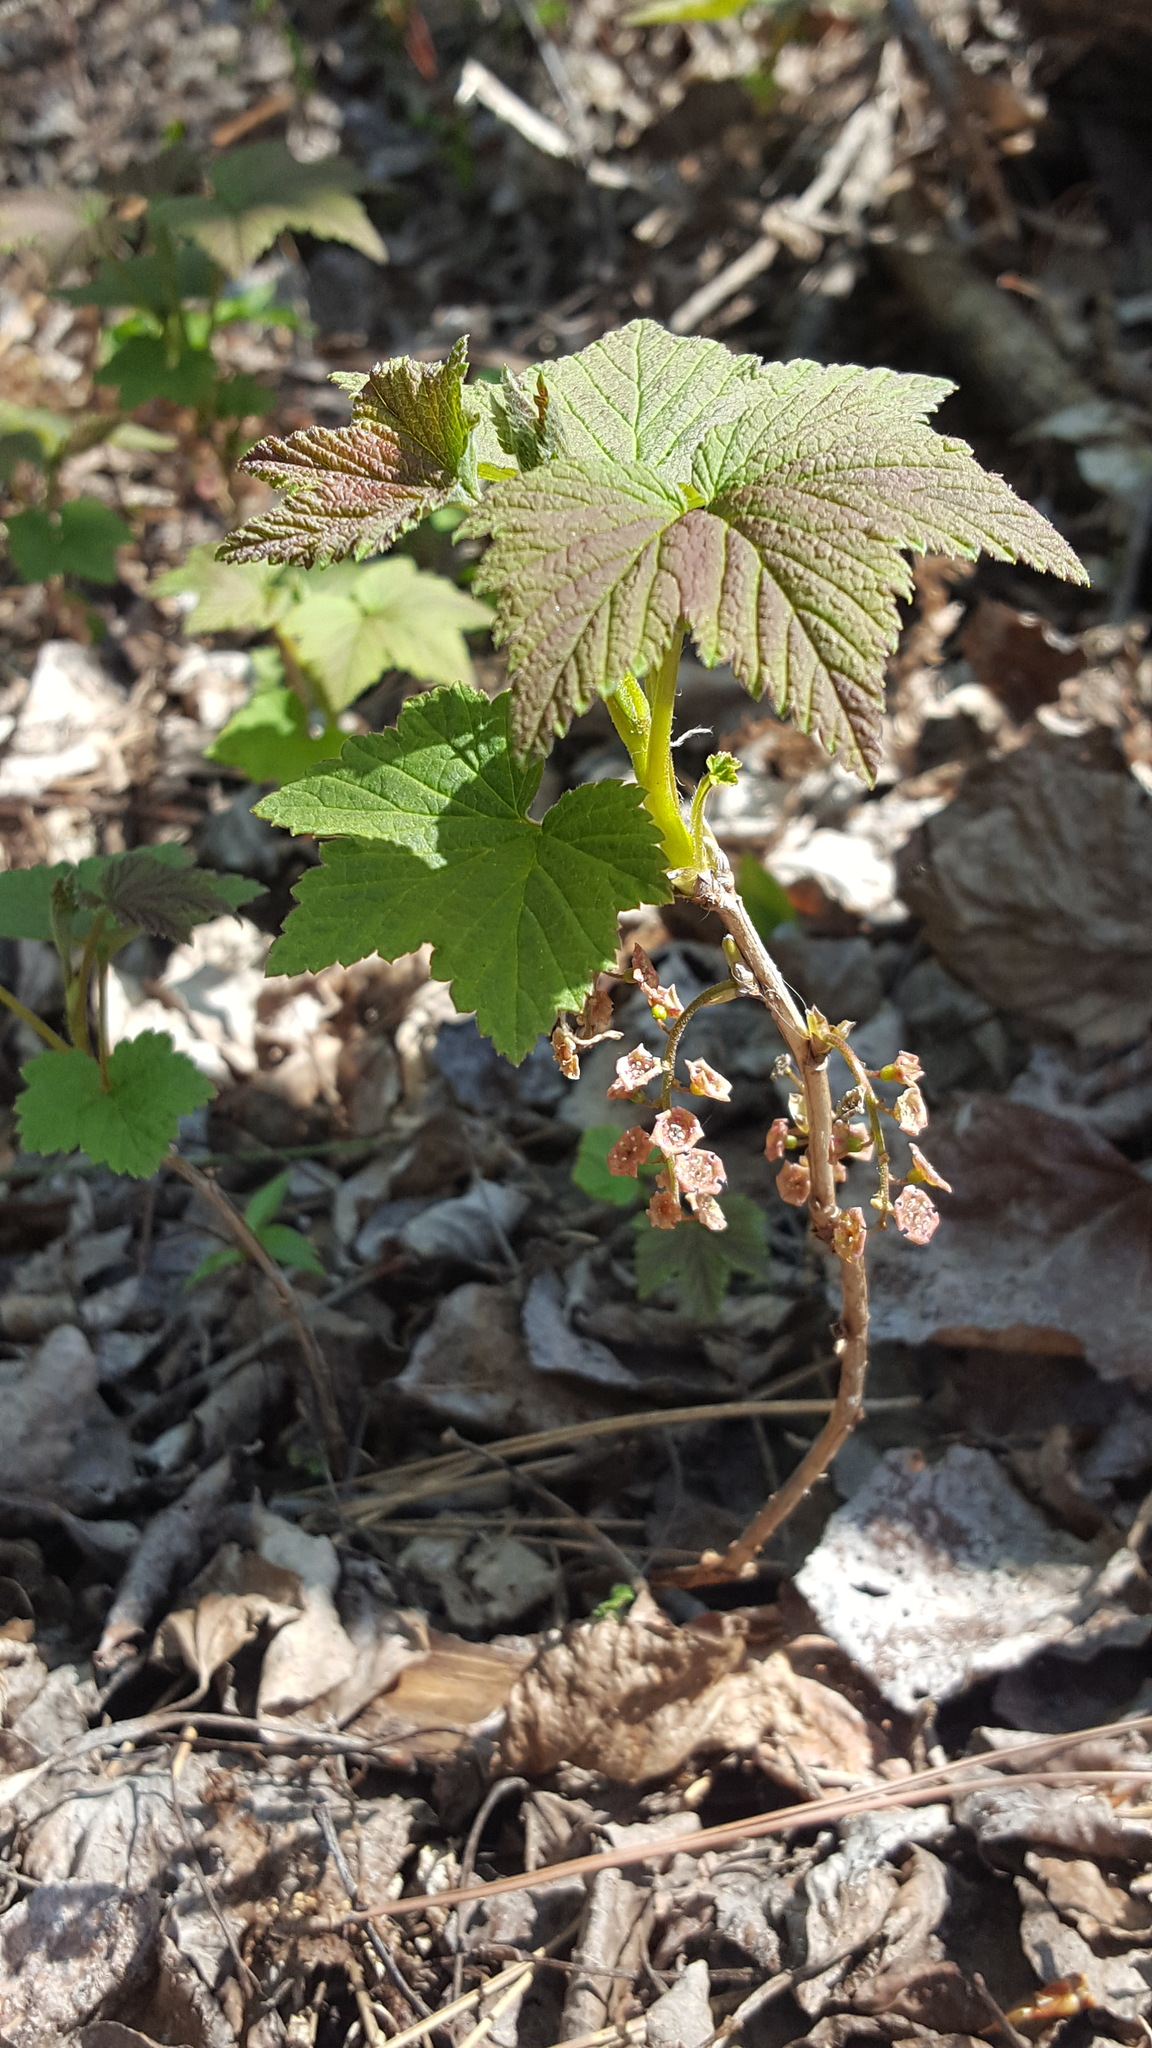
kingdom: Plantae
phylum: Tracheophyta
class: Magnoliopsida
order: Saxifragales
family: Grossulariaceae
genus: Ribes
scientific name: Ribes triste
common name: Swamp red currant
